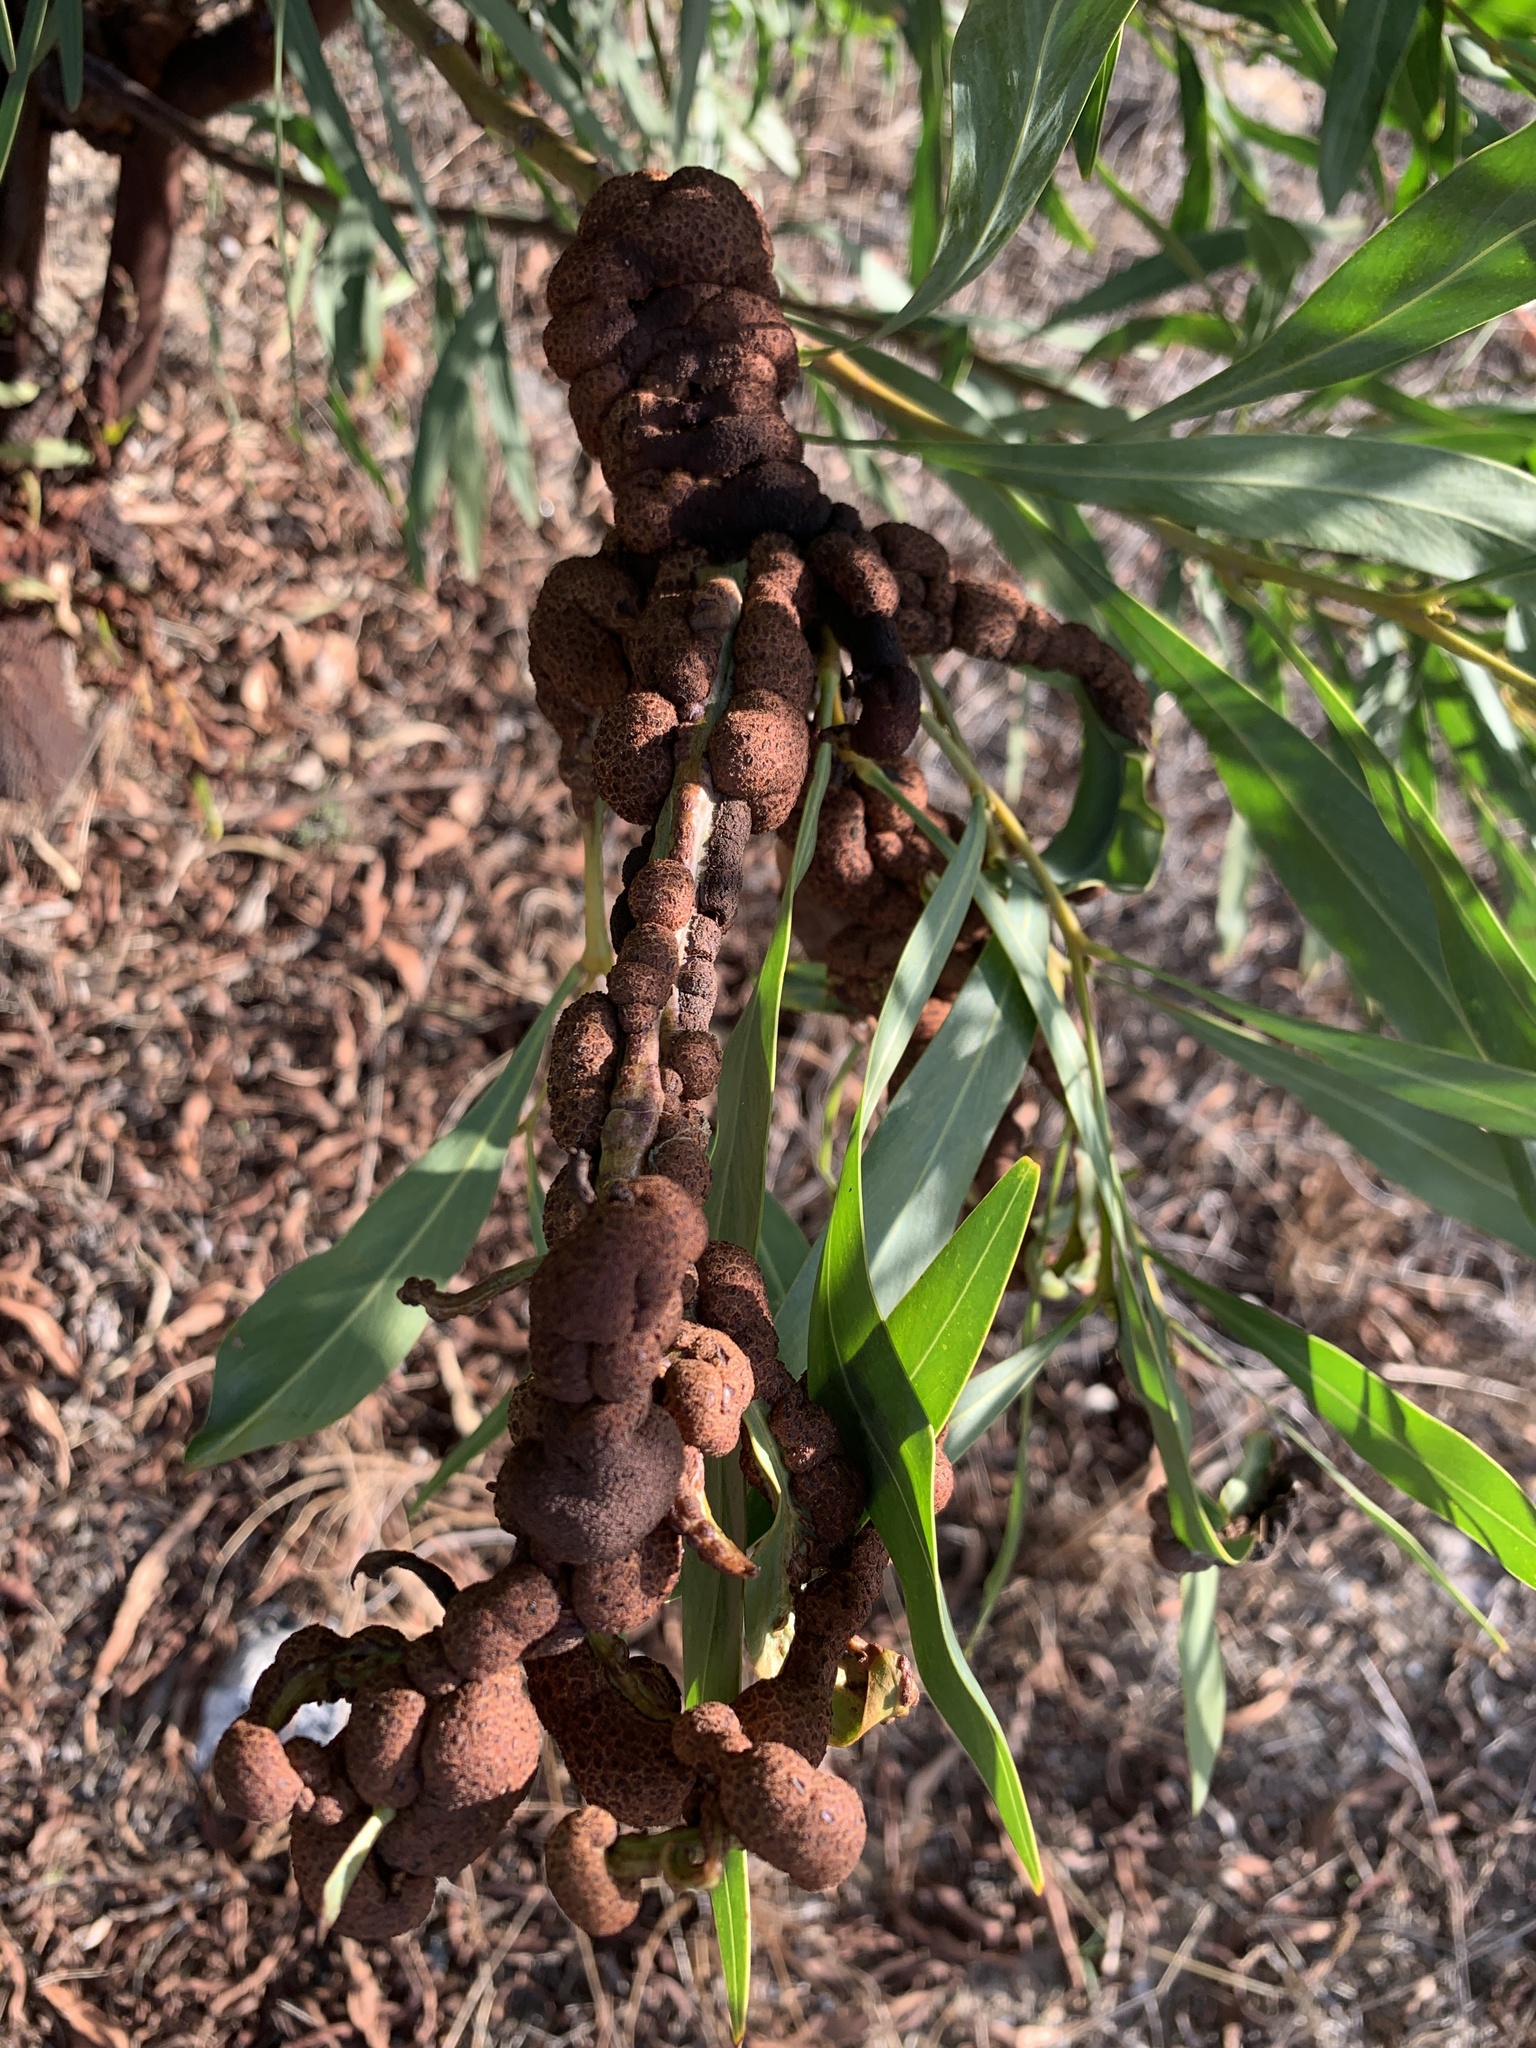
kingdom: Plantae
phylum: Tracheophyta
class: Magnoliopsida
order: Fabales
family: Fabaceae
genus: Acacia
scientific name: Acacia saligna
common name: Orange wattle
